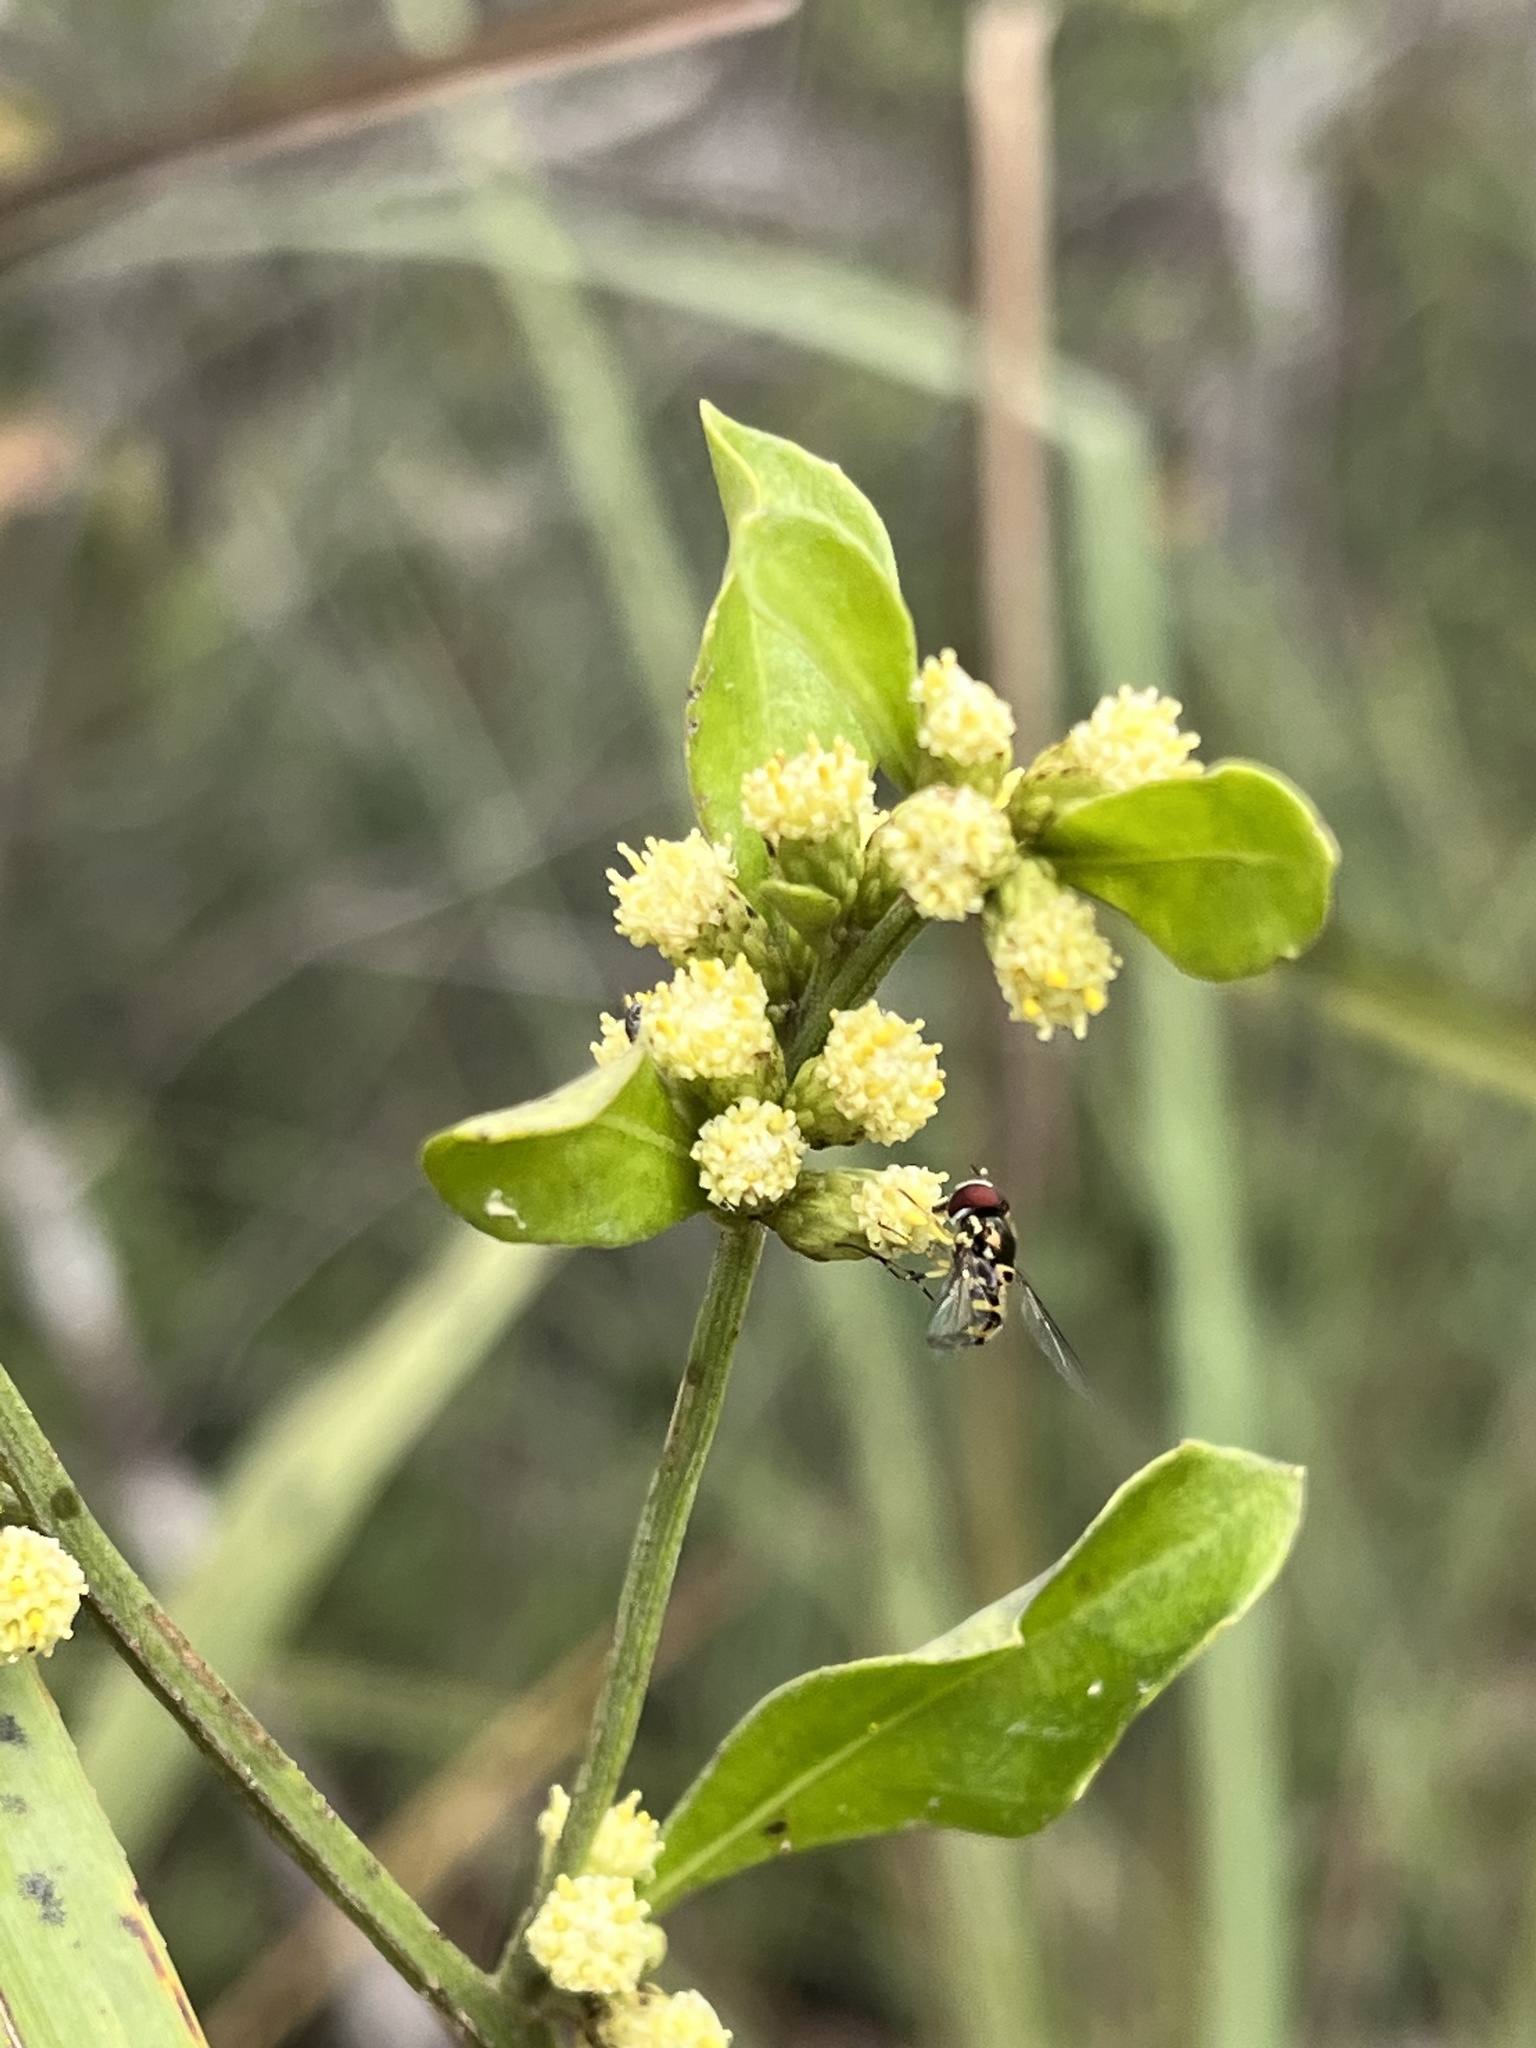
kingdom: Animalia
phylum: Arthropoda
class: Insecta
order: Diptera
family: Syrphidae
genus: Allograpta
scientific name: Allograpta radiata
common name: Syrphid fly
